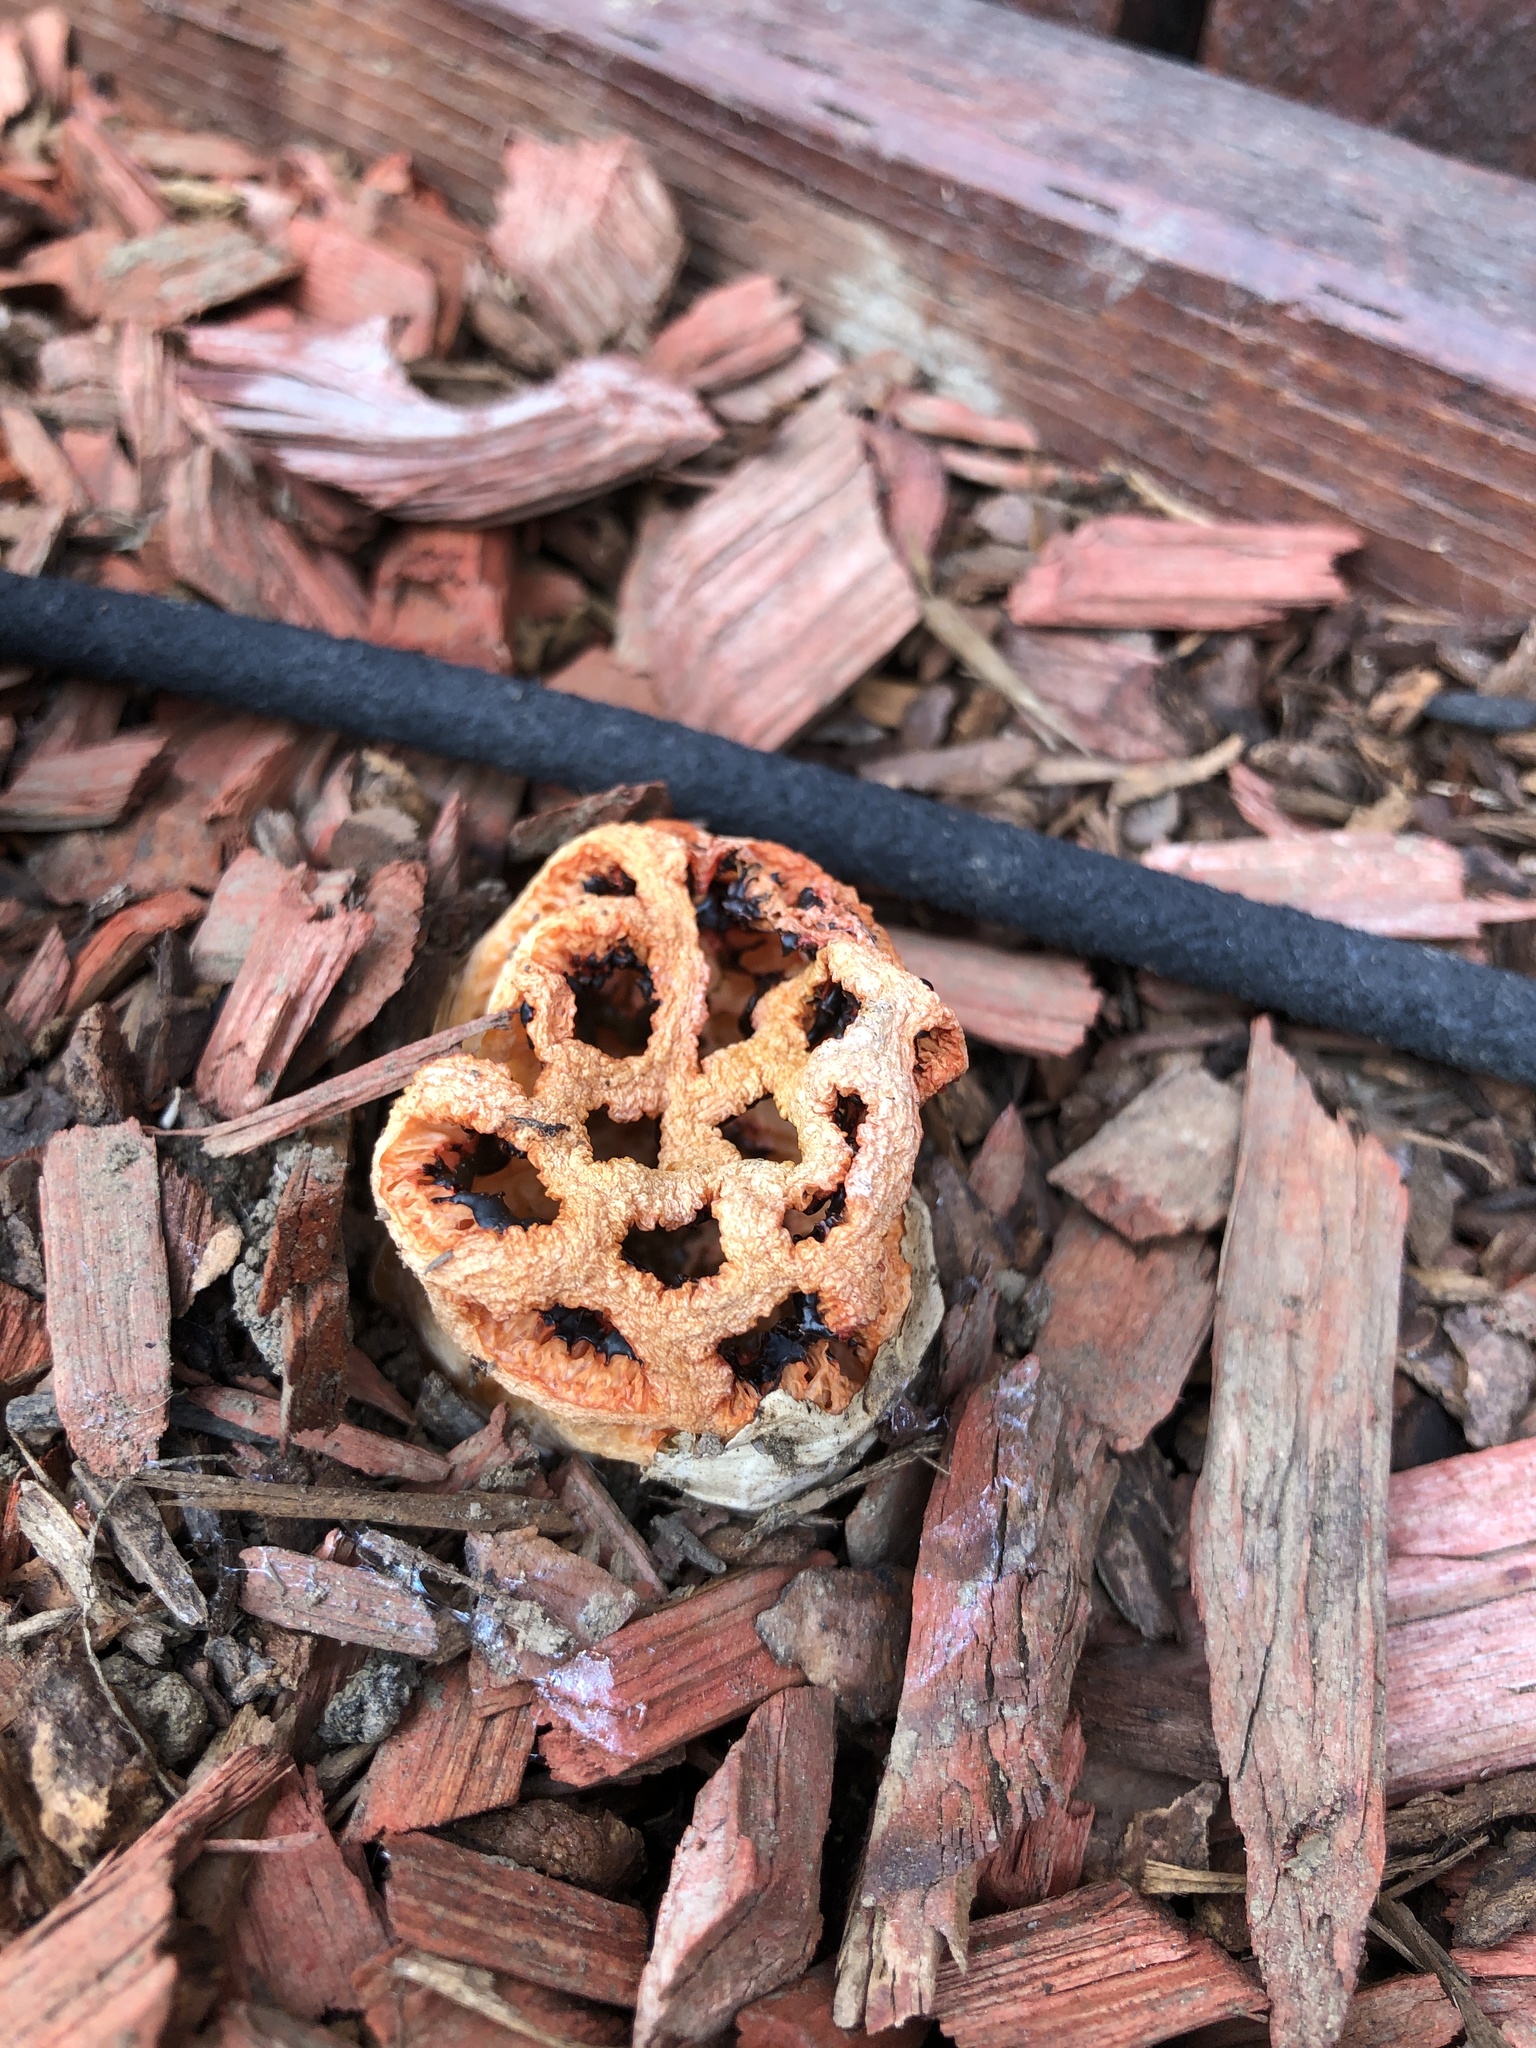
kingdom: Fungi
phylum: Basidiomycota
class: Agaricomycetes
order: Phallales
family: Phallaceae
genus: Clathrus
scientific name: Clathrus ruber
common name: Red cage
